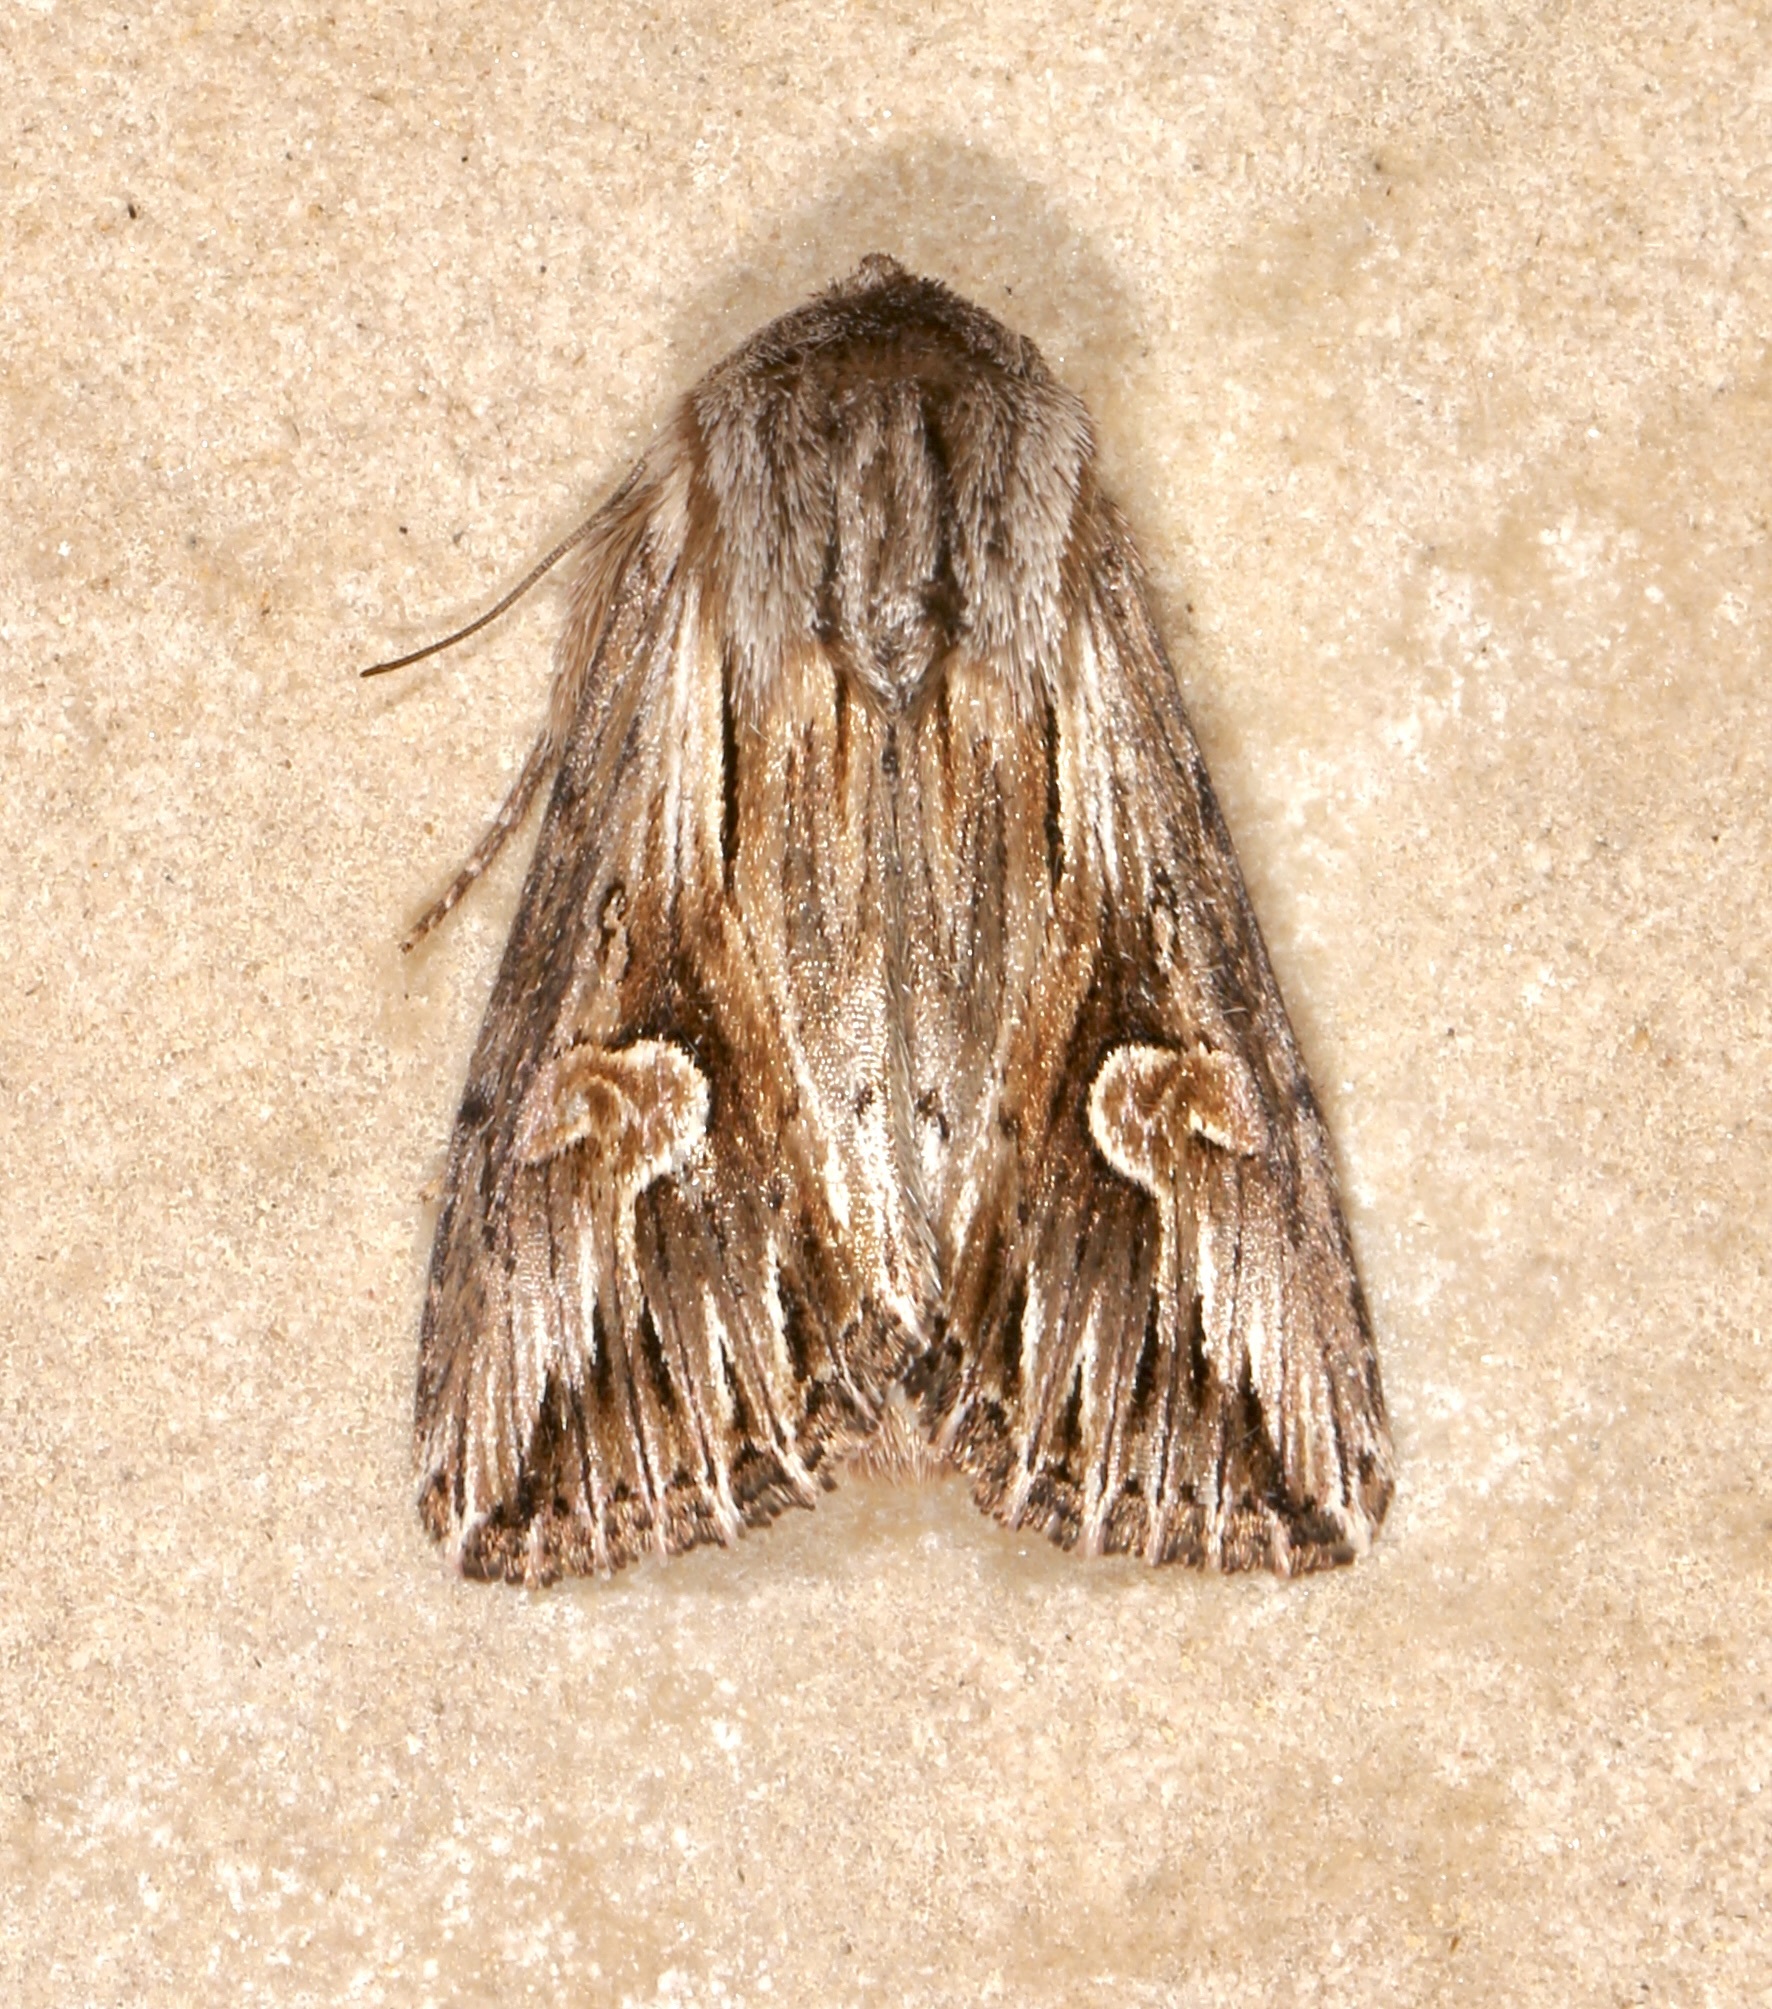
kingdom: Animalia
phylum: Arthropoda
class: Insecta
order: Lepidoptera
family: Noctuidae
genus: Nedra
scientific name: Nedra ramosula
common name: Gray half-spot
